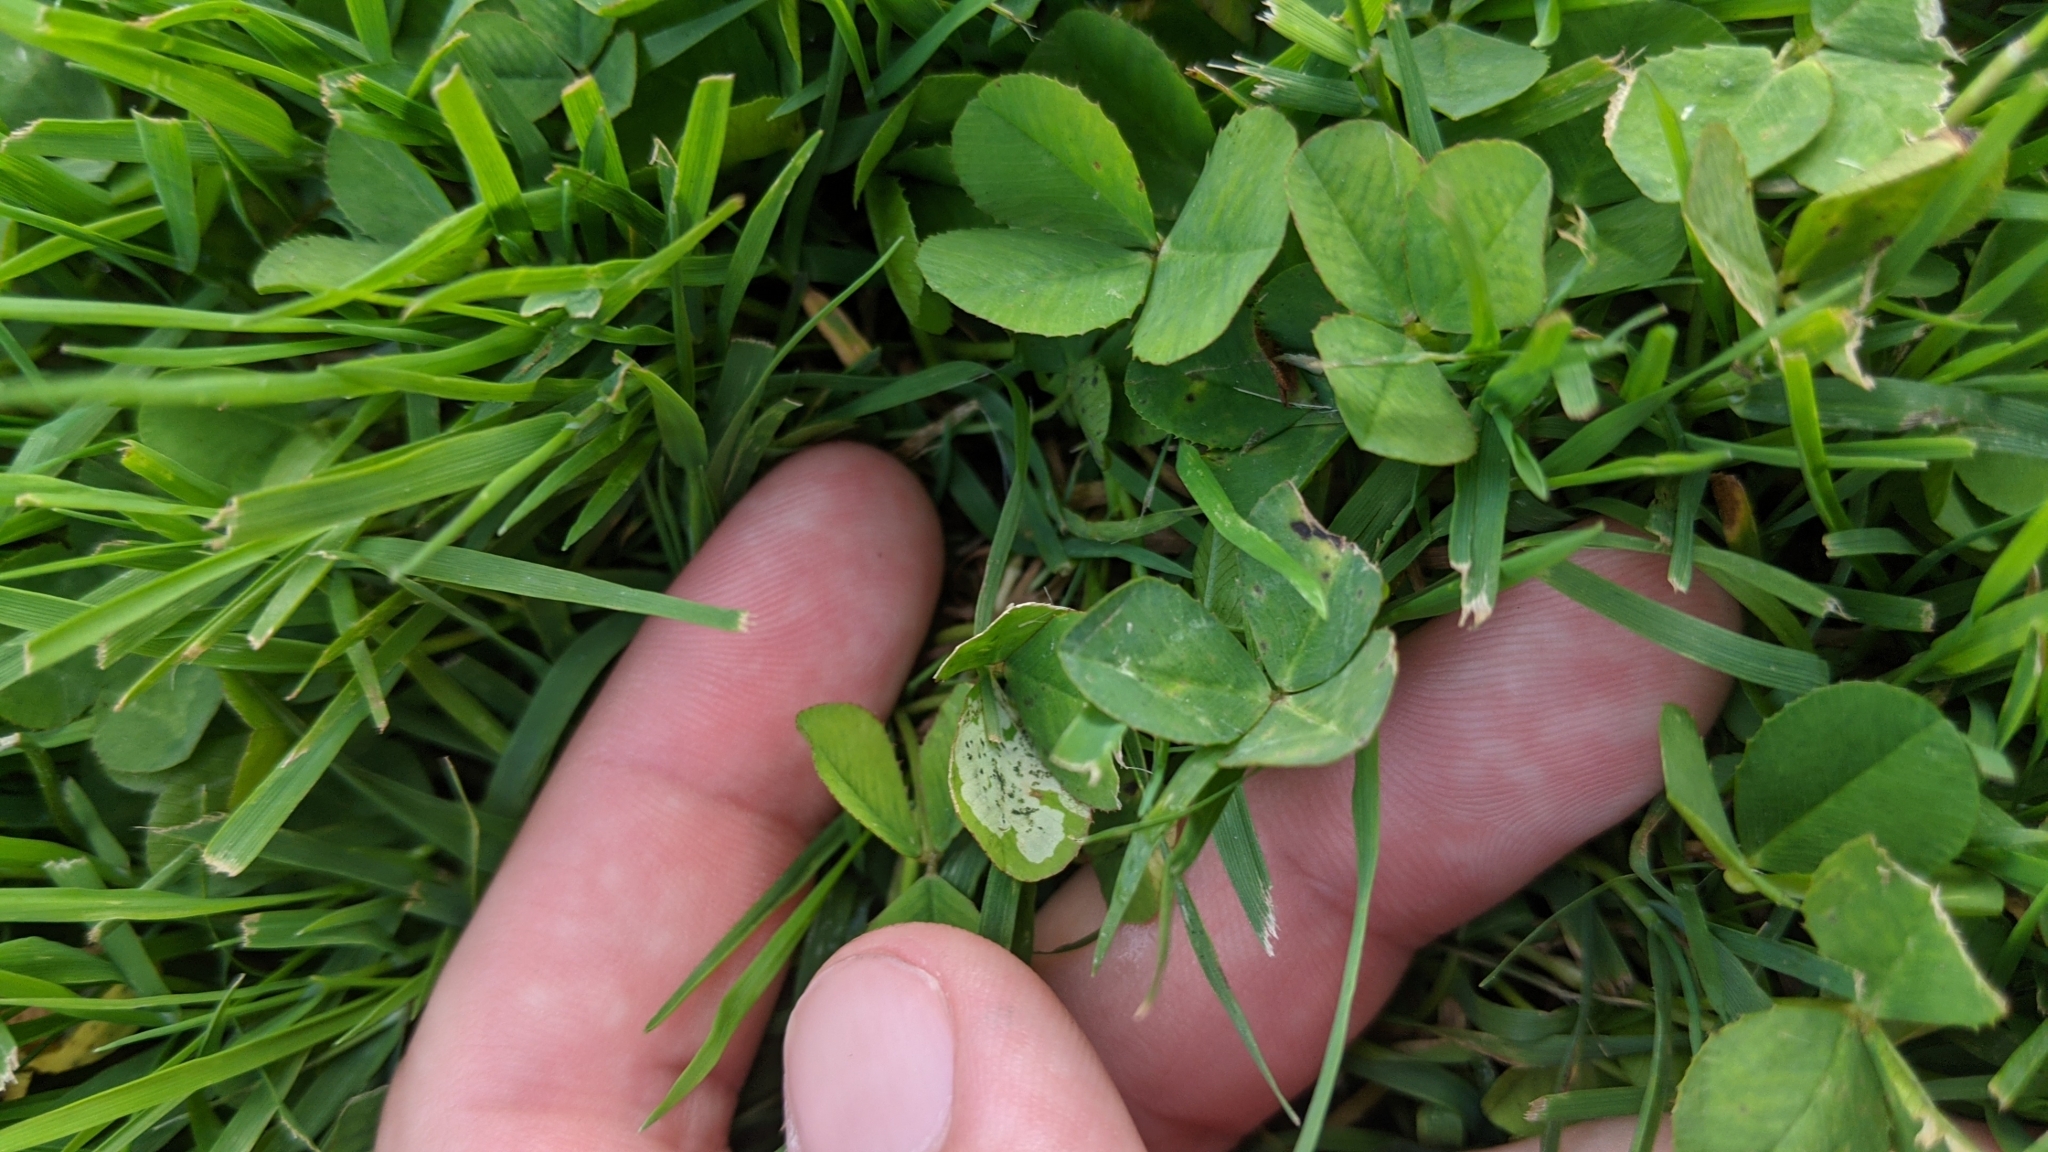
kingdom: Animalia
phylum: Arthropoda
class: Insecta
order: Diptera
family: Agromyzidae
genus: Liriomyza
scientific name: Liriomyza fricki
